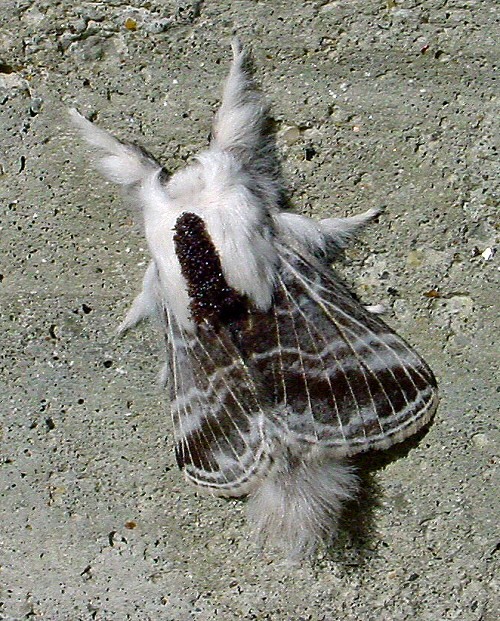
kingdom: Animalia
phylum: Arthropoda
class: Insecta
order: Lepidoptera
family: Lasiocampidae
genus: Tolype
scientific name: Tolype velleda
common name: Large tolype moth
